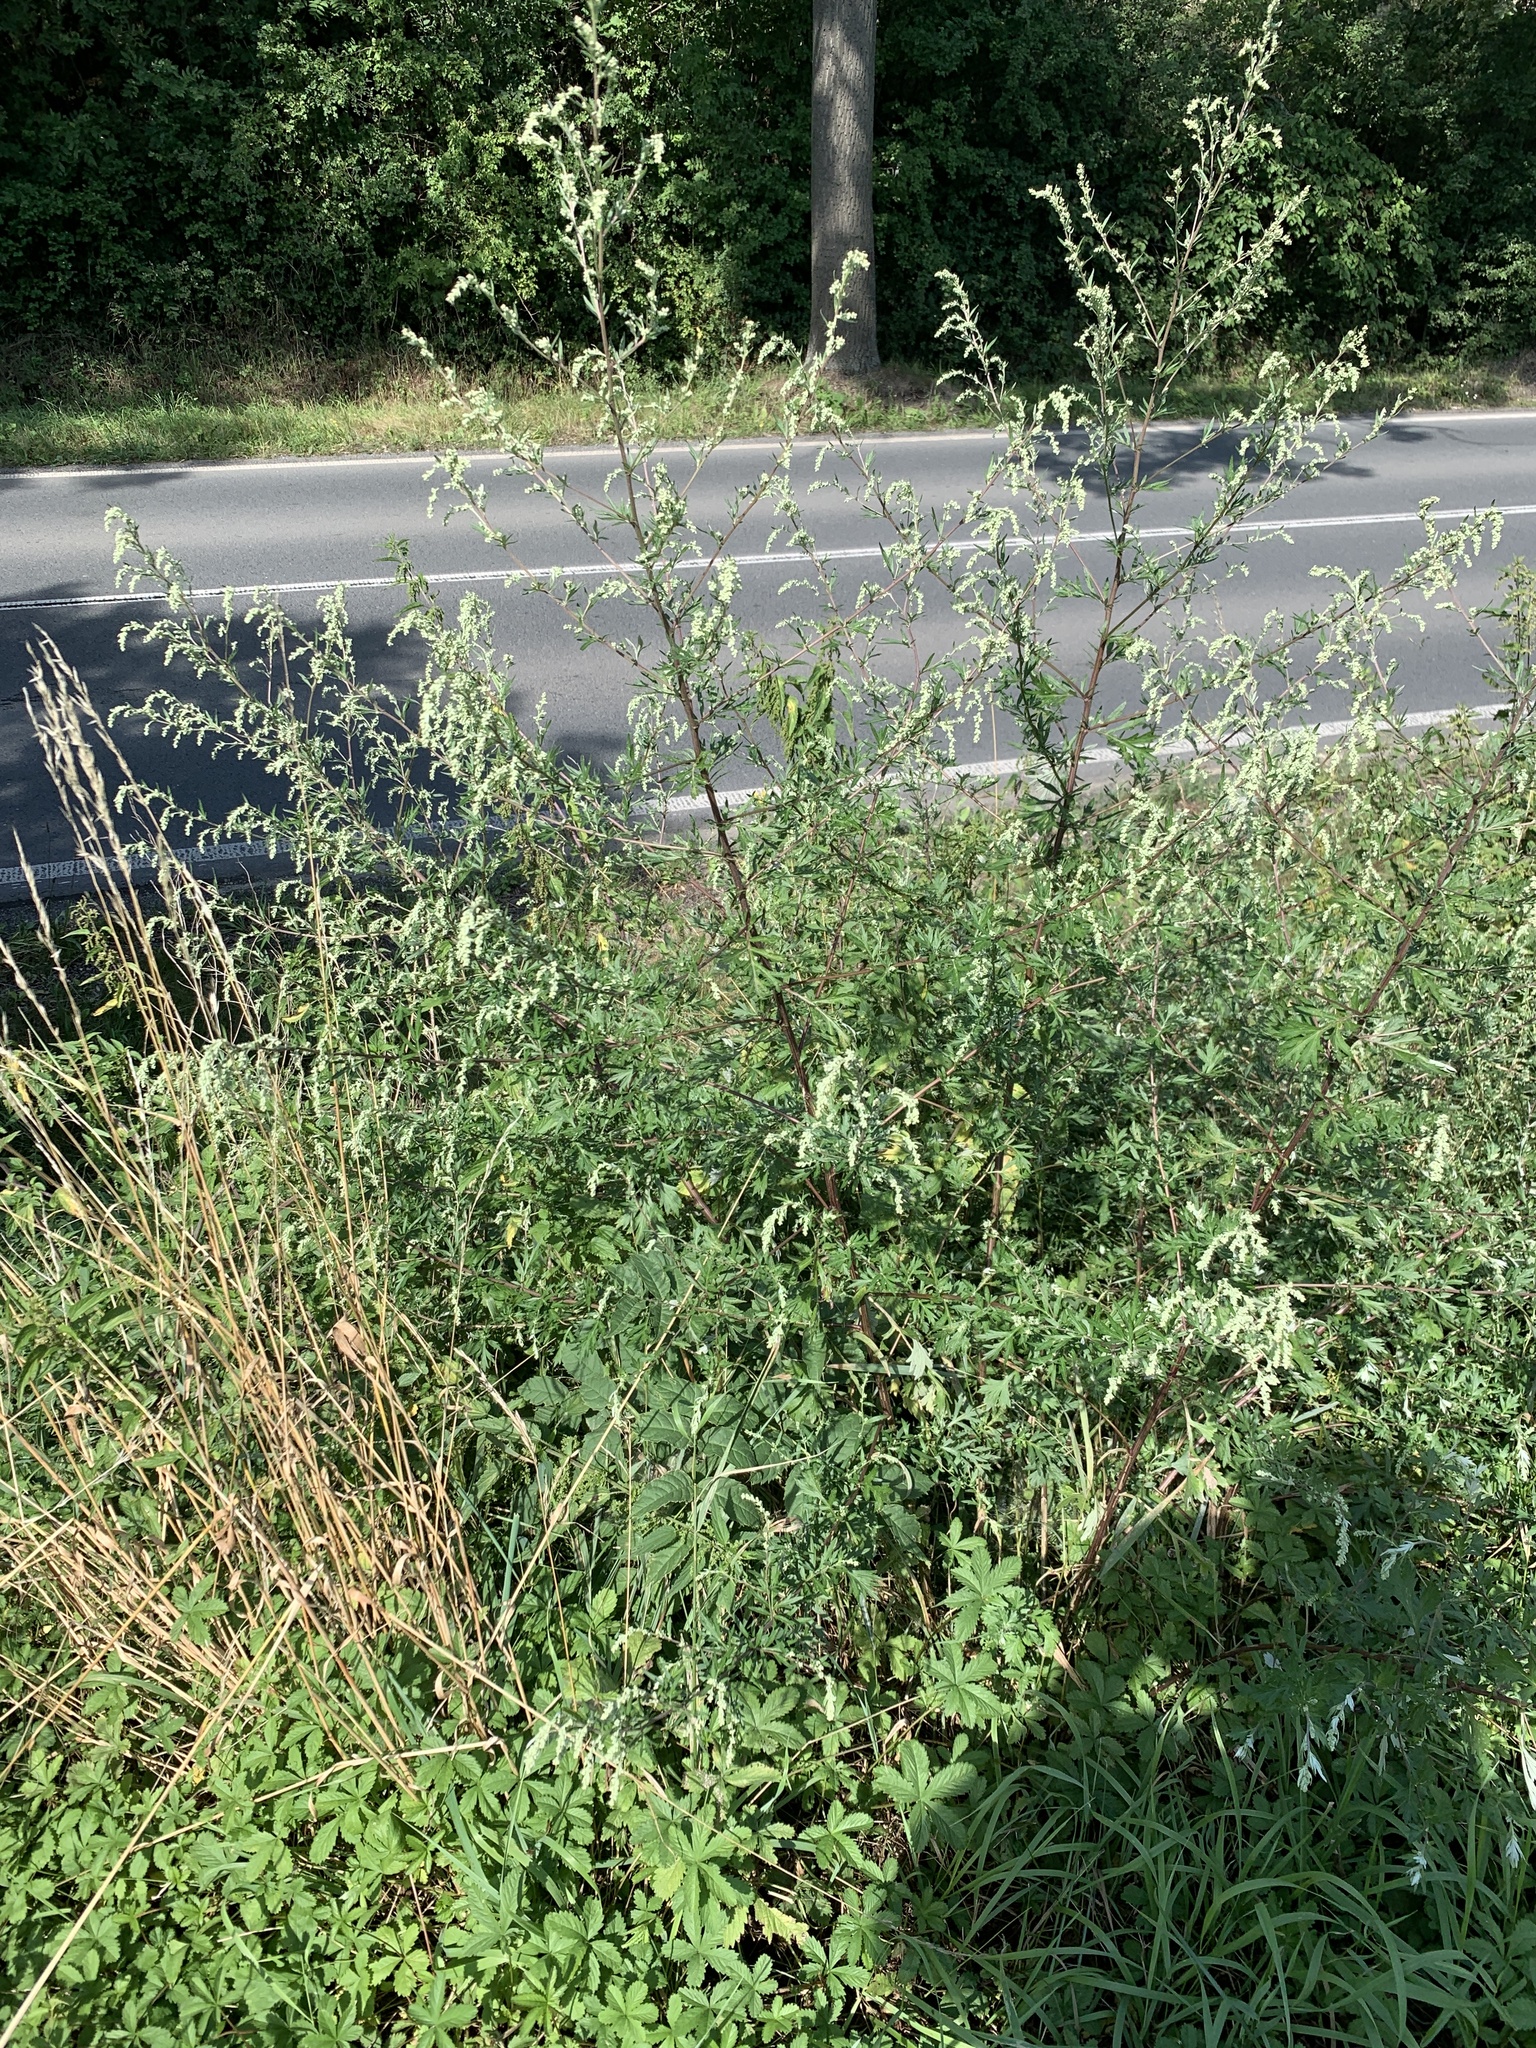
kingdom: Plantae
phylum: Tracheophyta
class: Magnoliopsida
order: Asterales
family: Asteraceae
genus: Artemisia
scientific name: Artemisia vulgaris
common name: Mugwort
